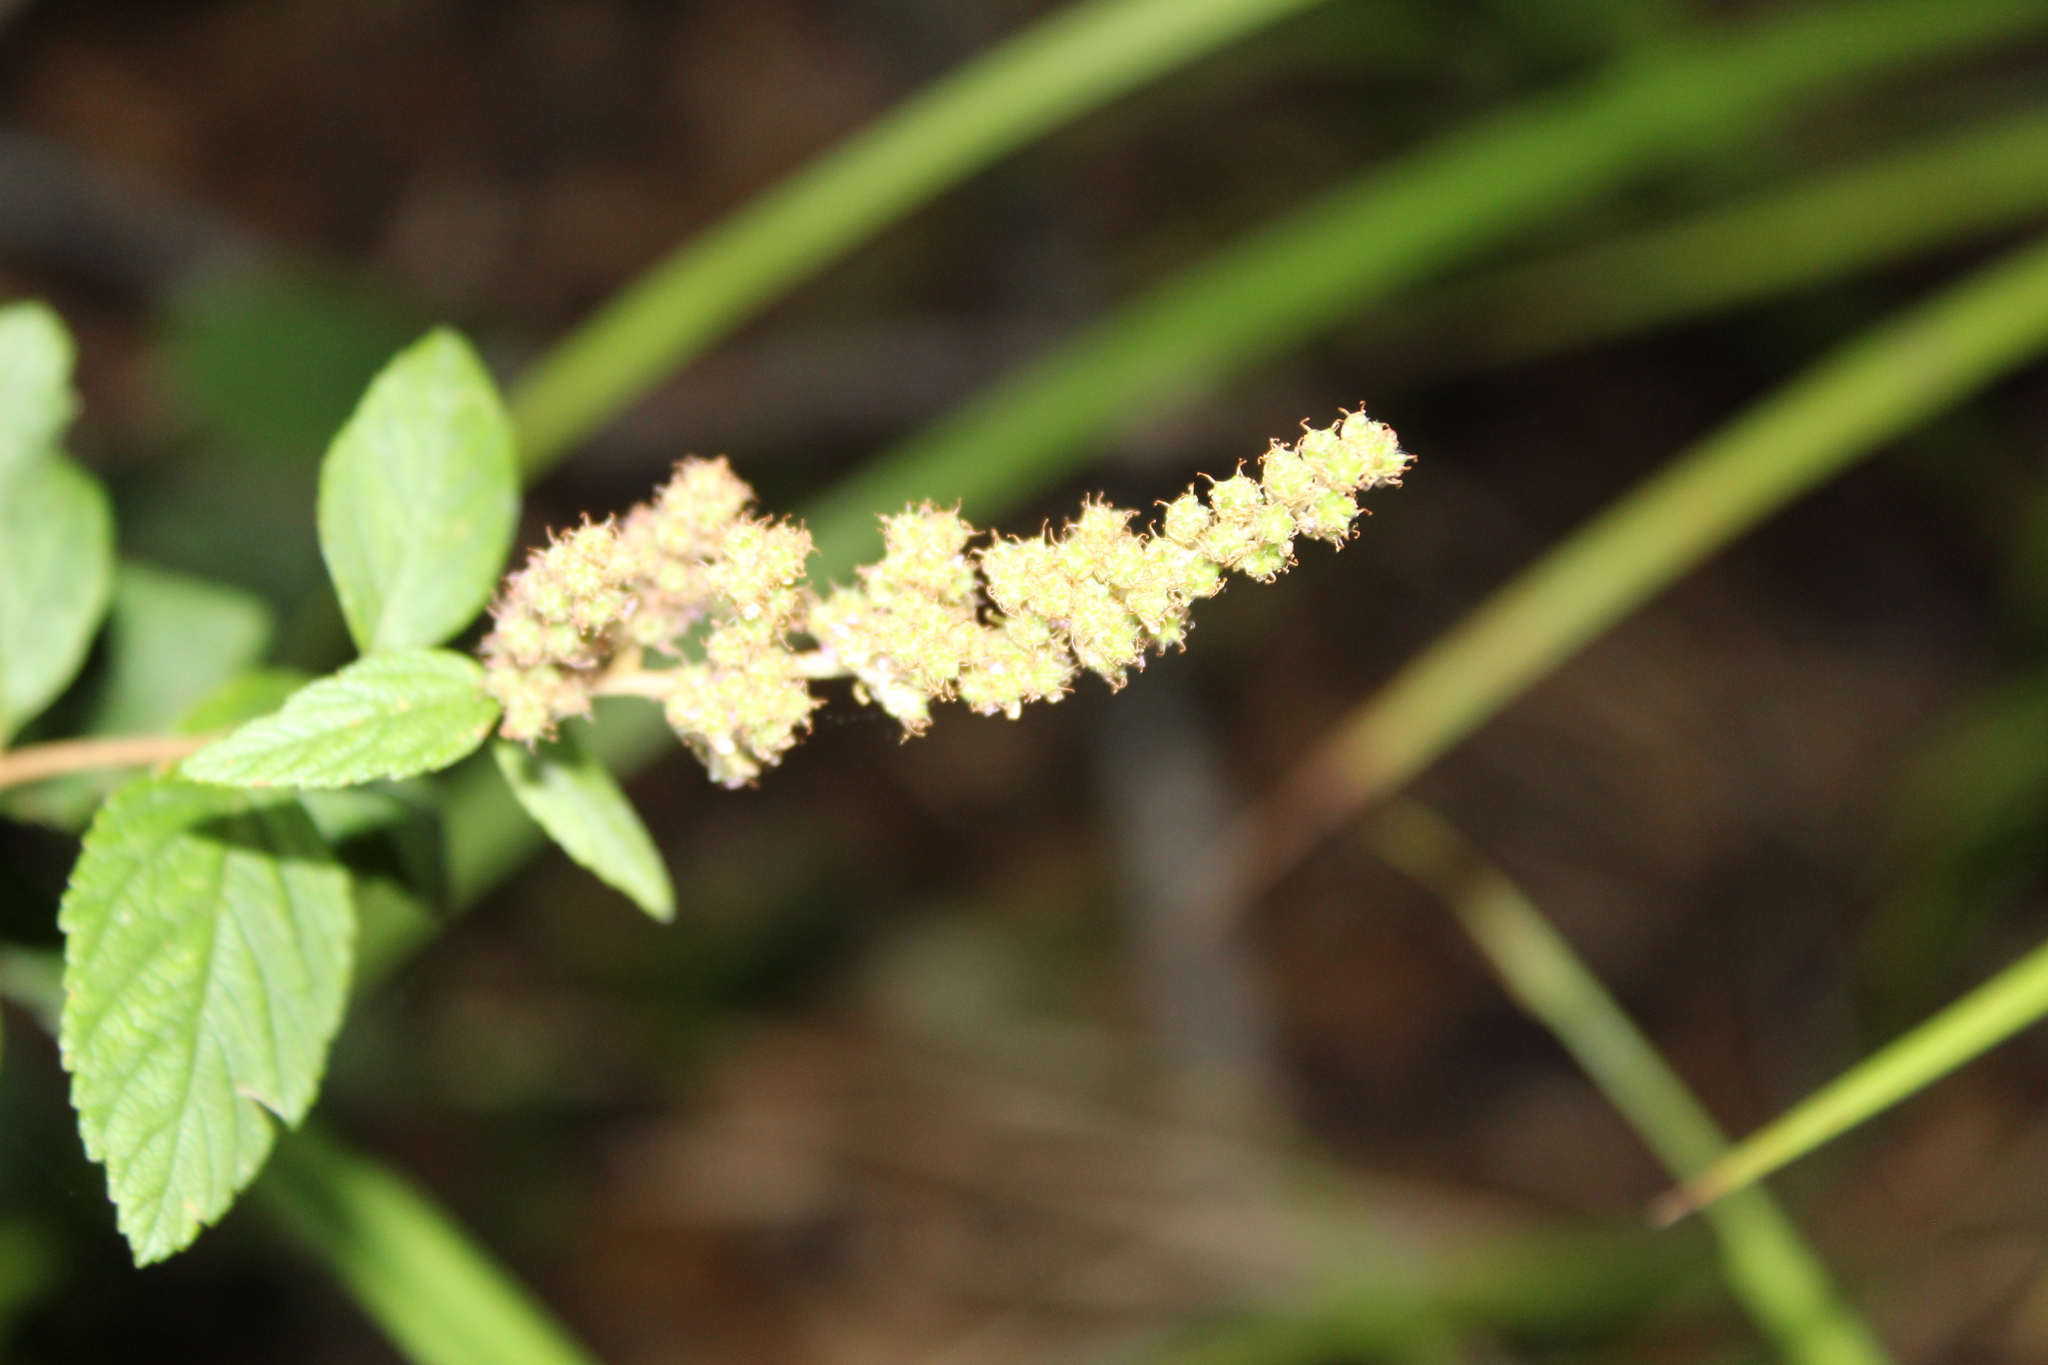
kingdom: Plantae
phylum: Tracheophyta
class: Magnoliopsida
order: Rosales
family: Rosaceae
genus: Spiraea
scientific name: Spiraea tomentosa
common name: Hardhack
